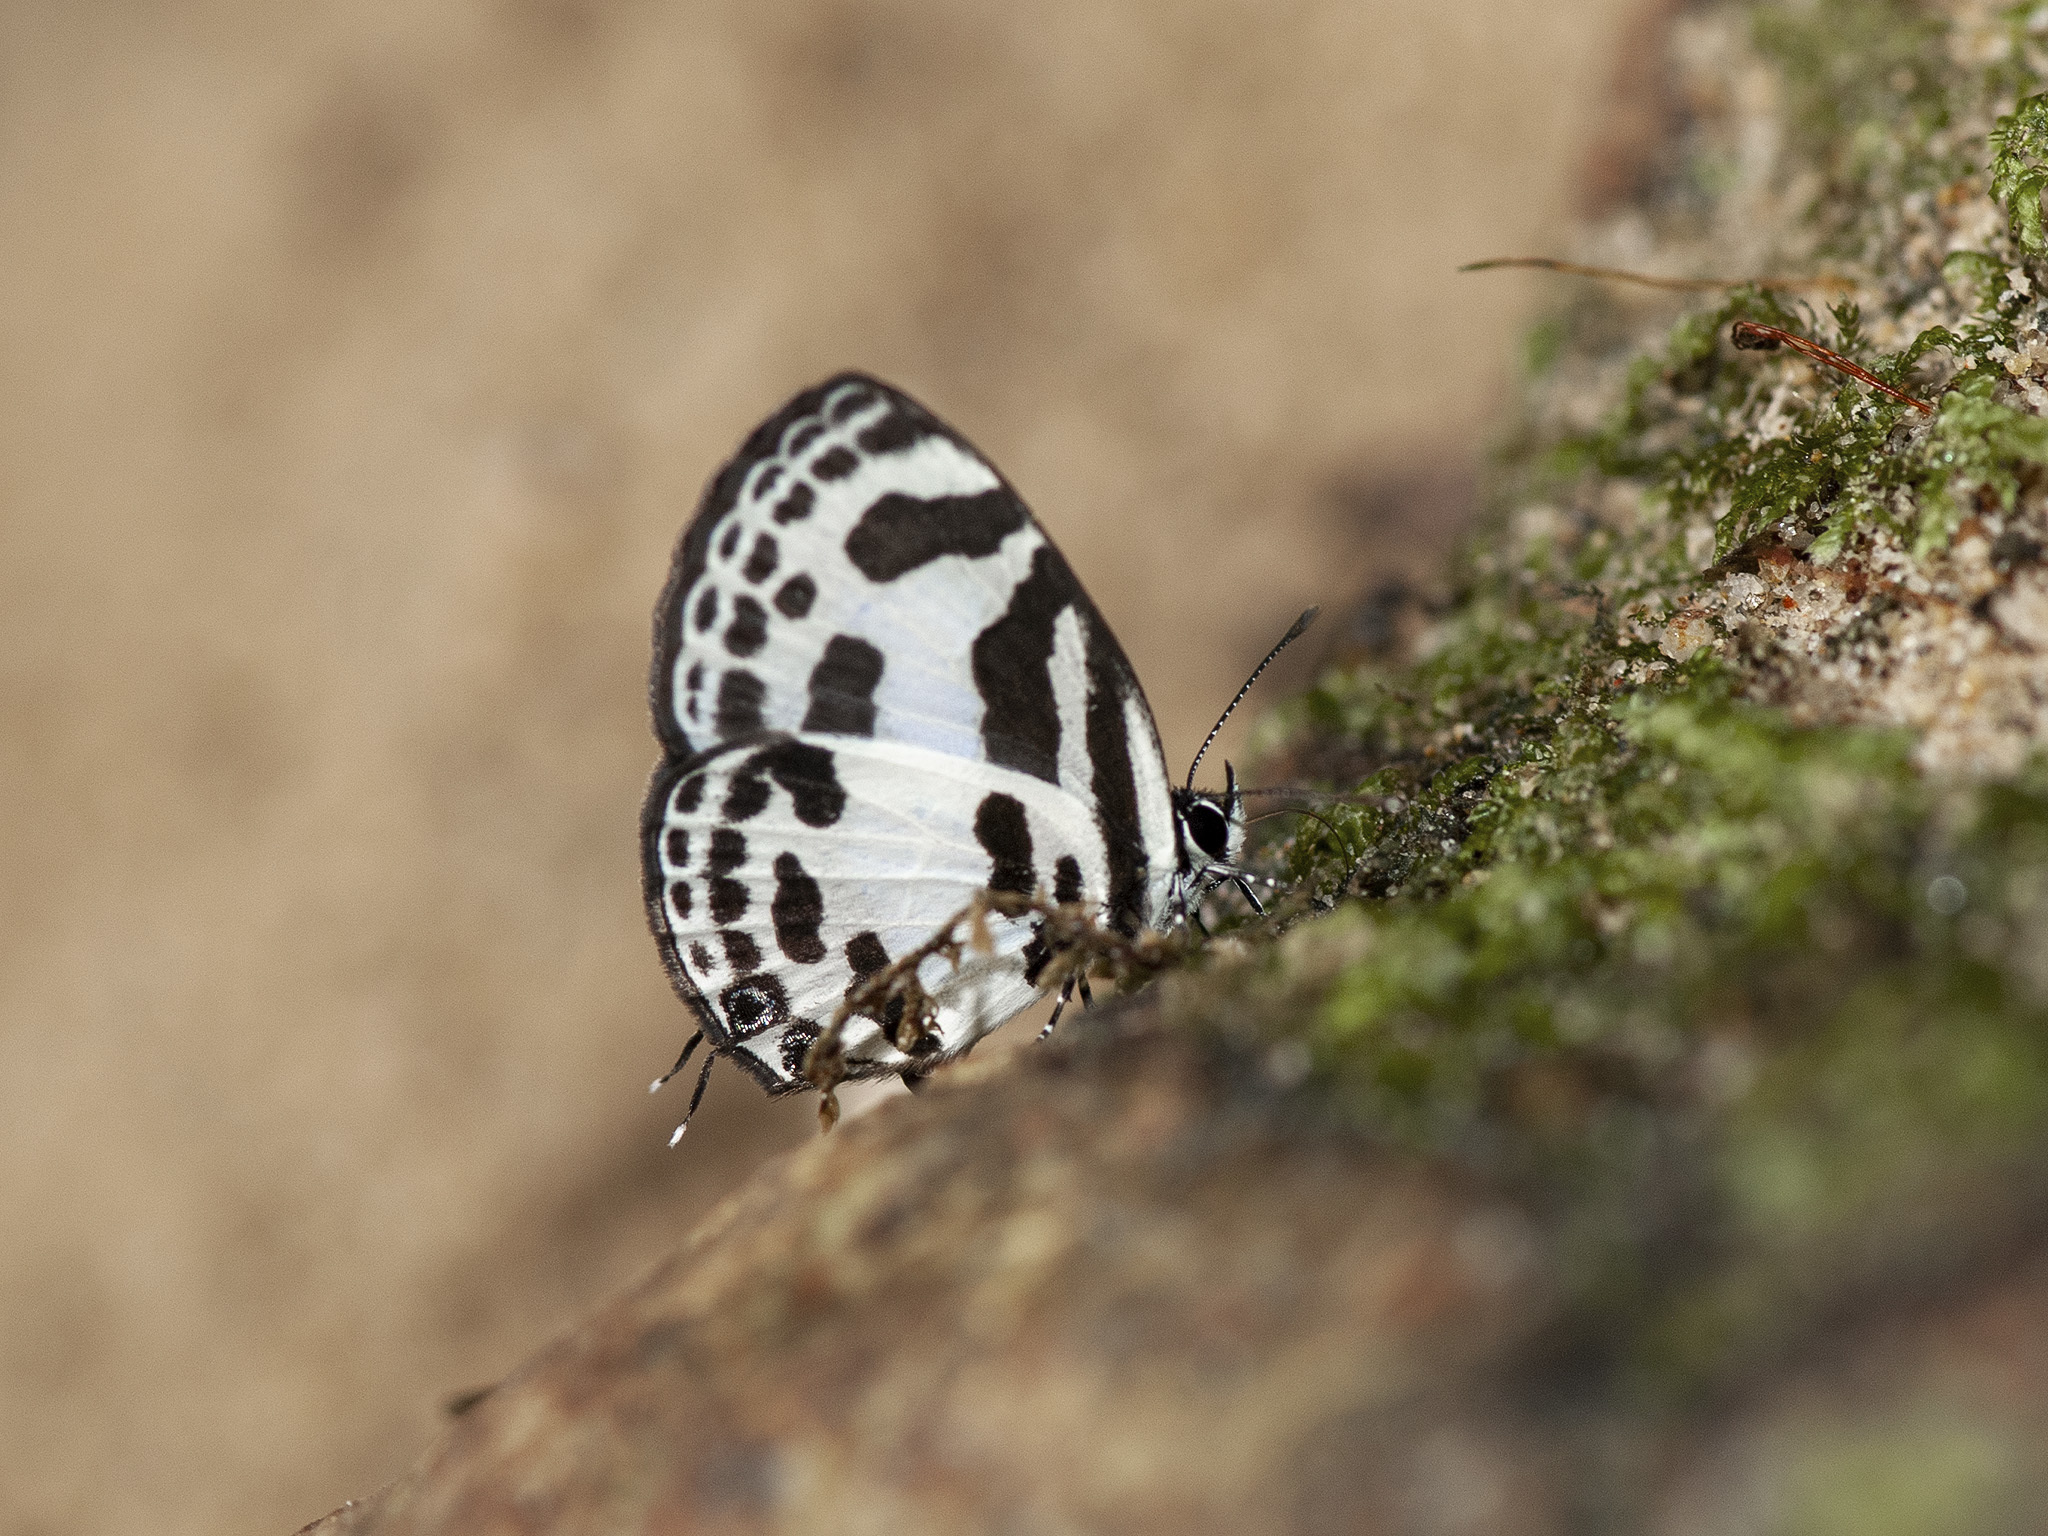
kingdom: Animalia
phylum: Arthropoda
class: Insecta
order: Lepidoptera
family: Lycaenidae
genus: Discolampa
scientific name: Discolampa ethion
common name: Banded blue pierrot
